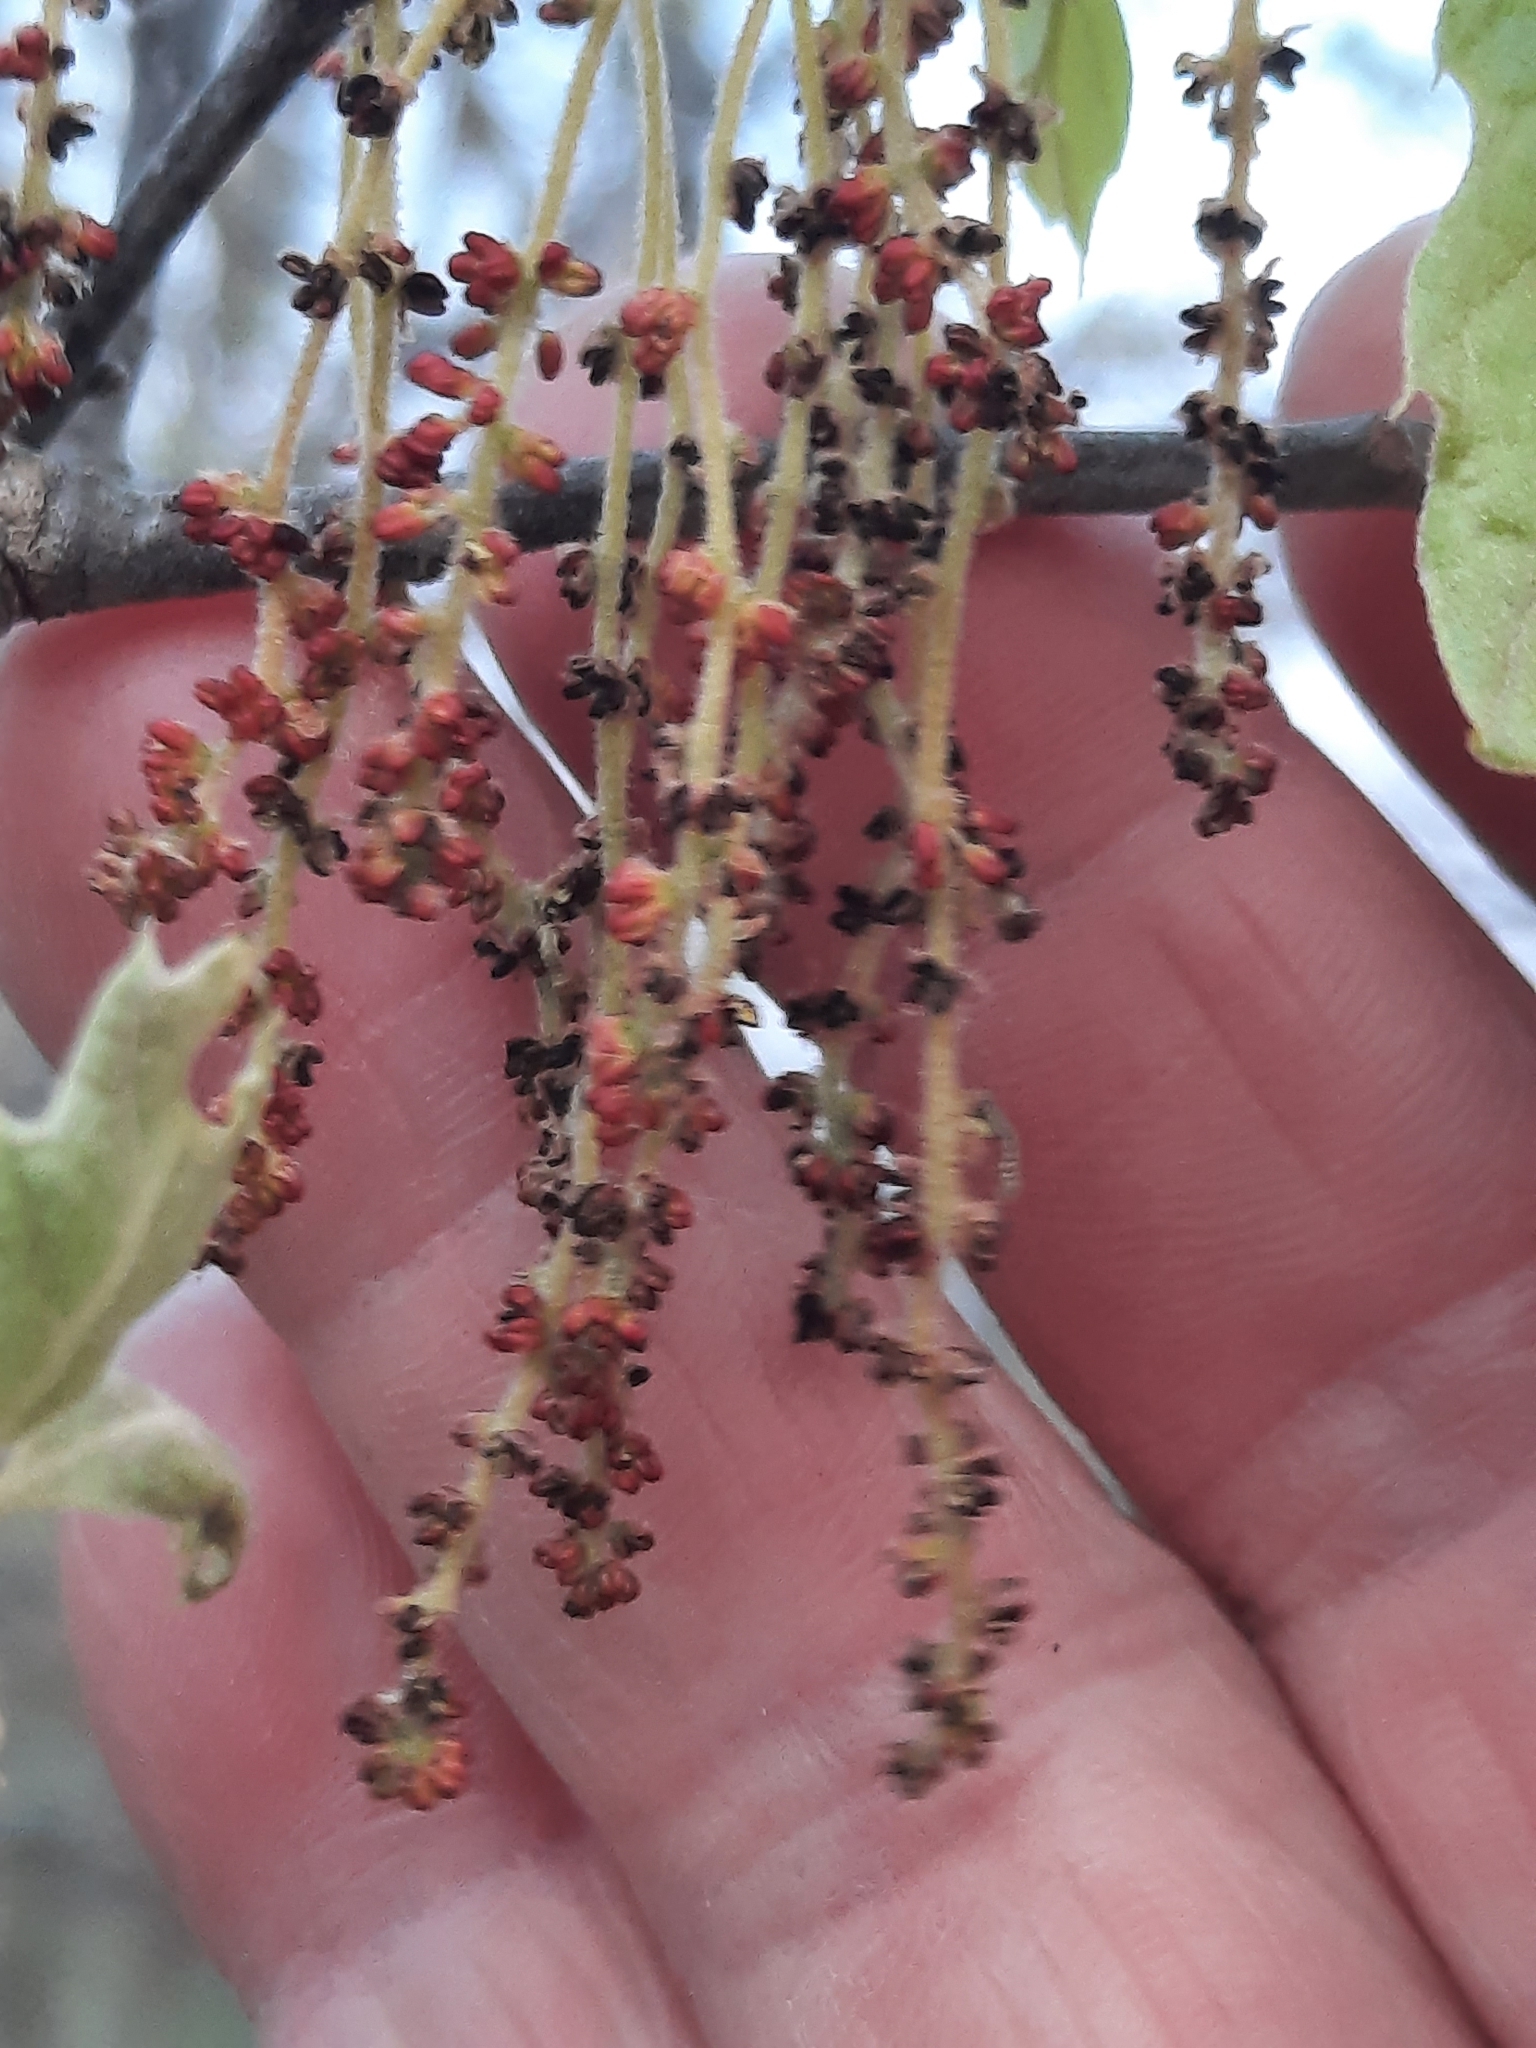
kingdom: Plantae
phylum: Tracheophyta
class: Magnoliopsida
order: Fagales
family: Fagaceae
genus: Quercus
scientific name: Quercus ilicifolia
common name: Bear oak
